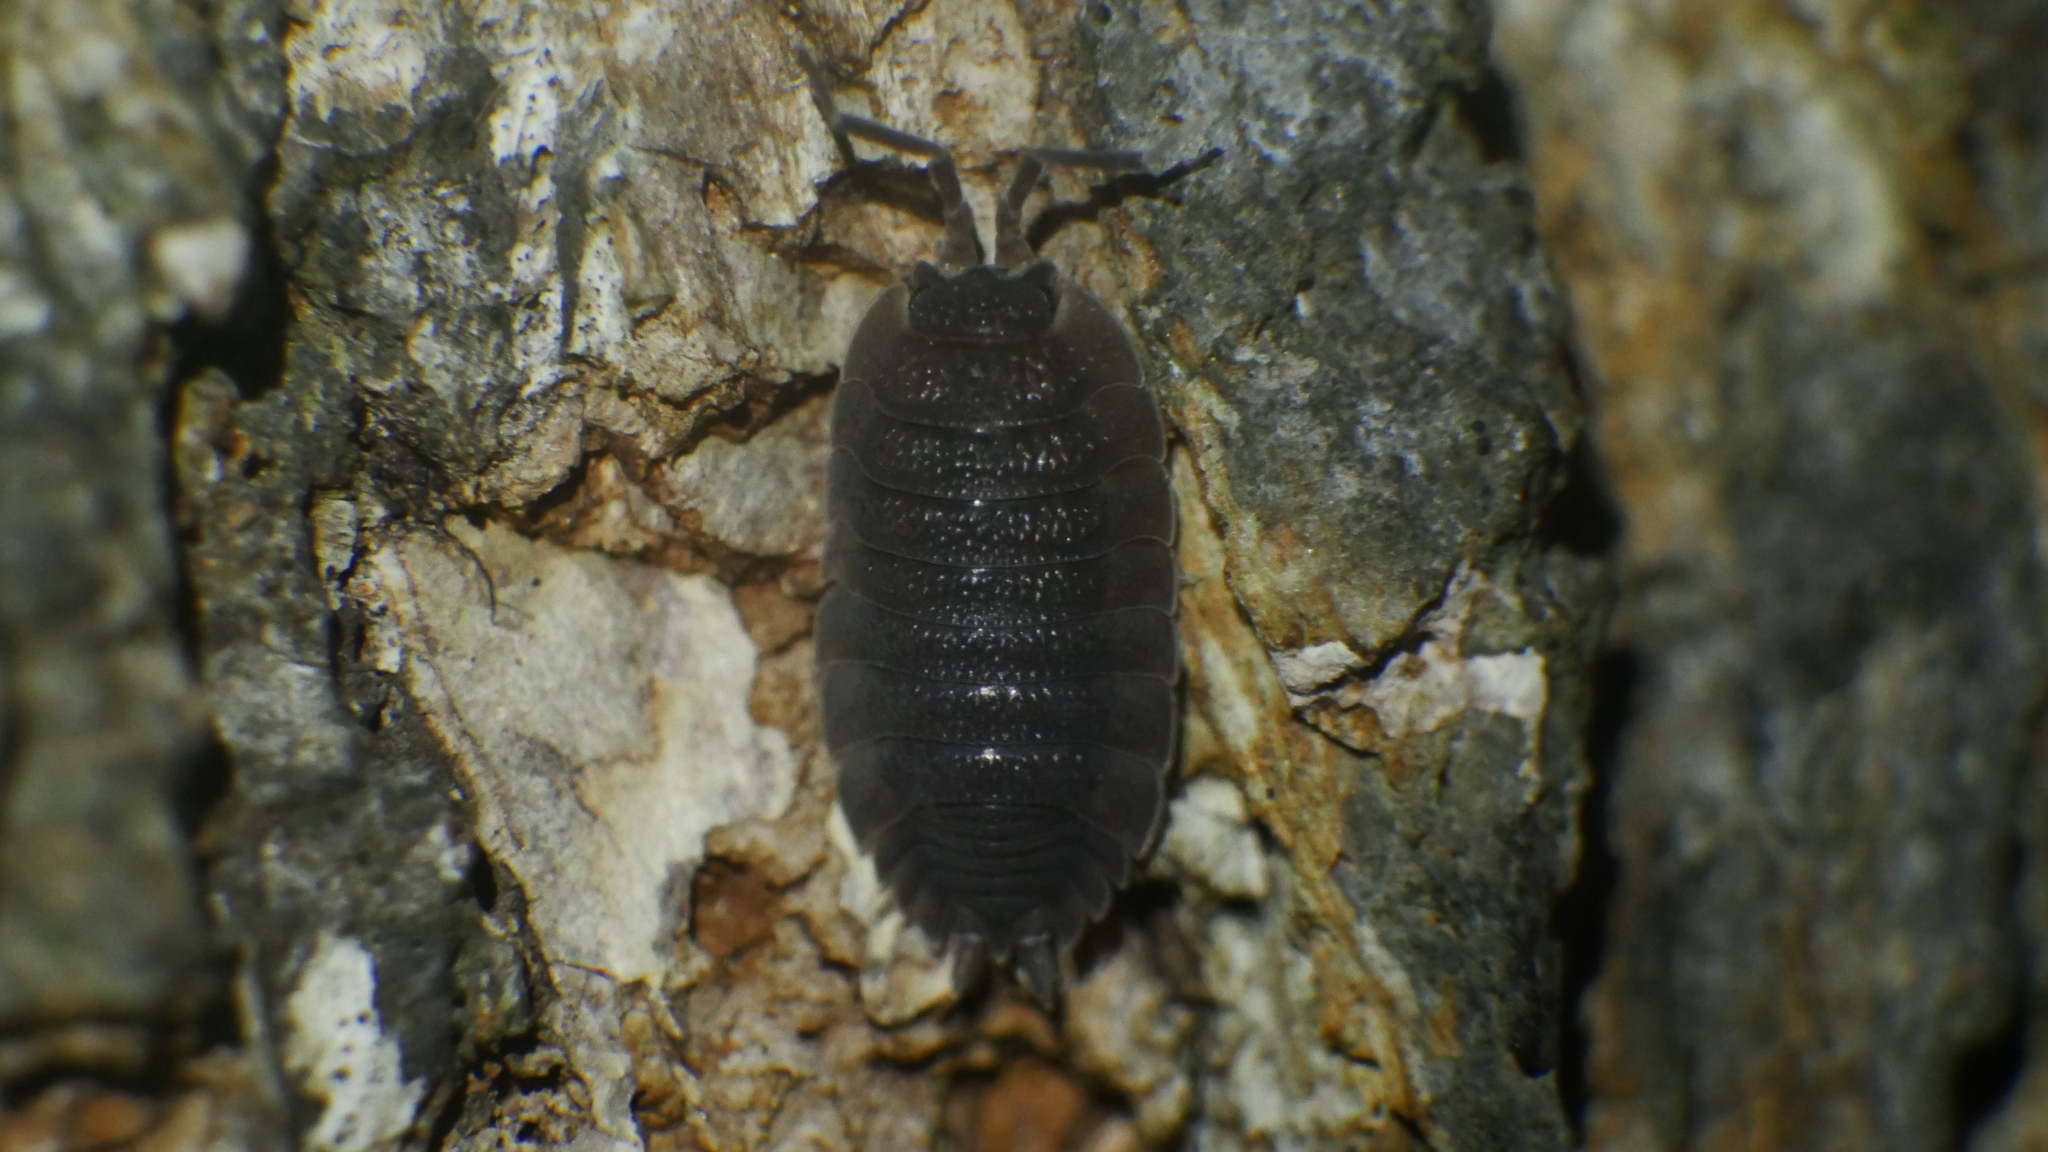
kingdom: Animalia
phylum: Arthropoda
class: Malacostraca
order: Isopoda
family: Porcellionidae
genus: Porcellio
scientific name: Porcellio scaber
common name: Common rough woodlouse
